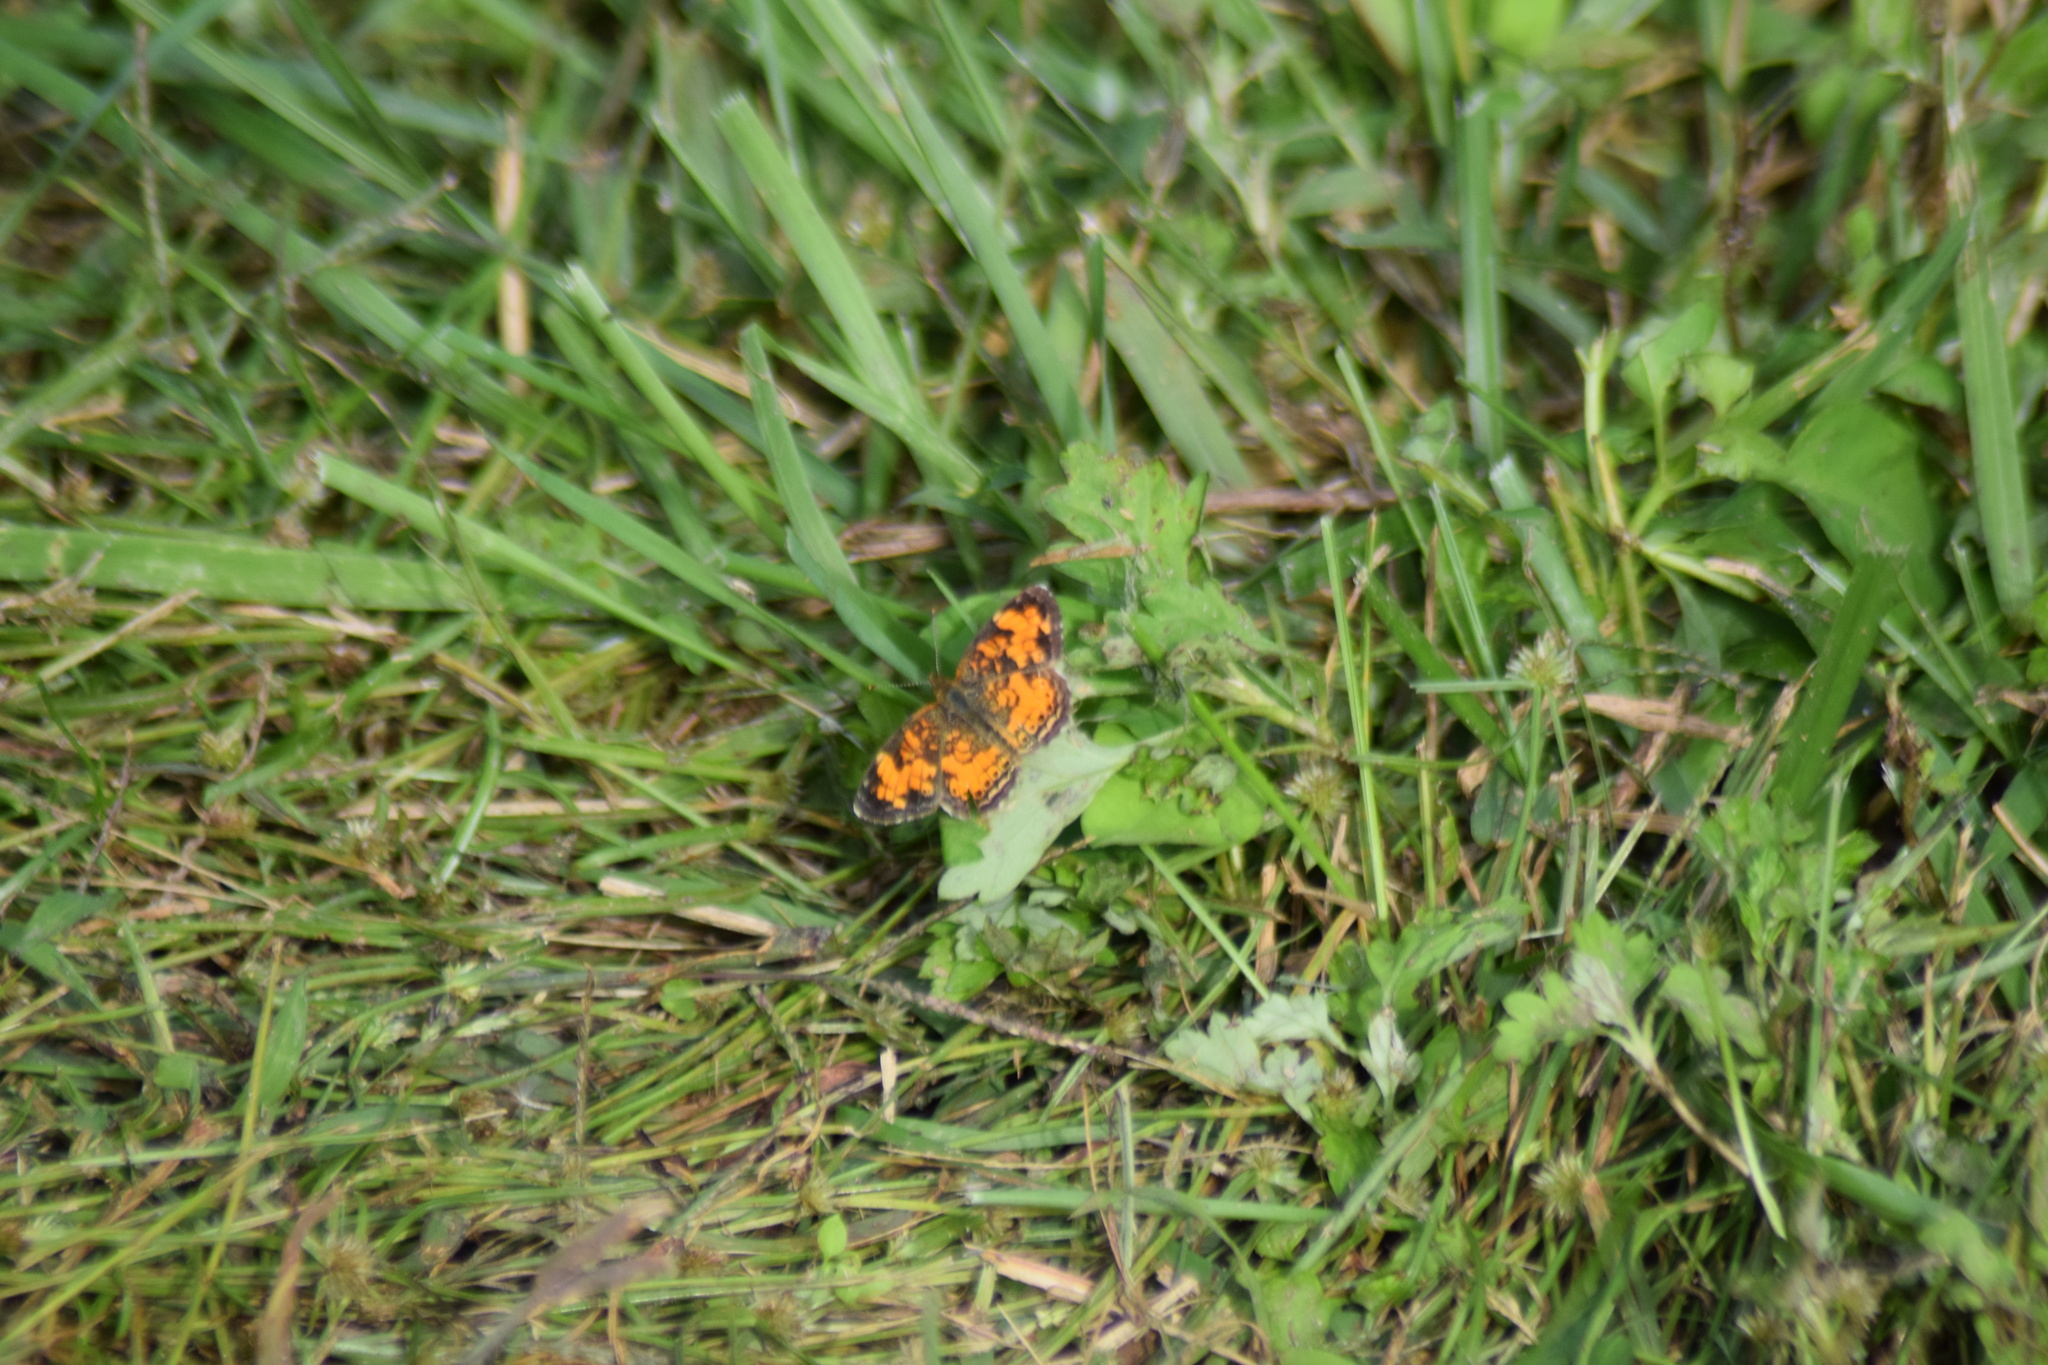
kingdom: Animalia
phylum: Arthropoda
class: Insecta
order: Lepidoptera
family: Nymphalidae
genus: Phyciodes
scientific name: Phyciodes tharos
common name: Pearl crescent
